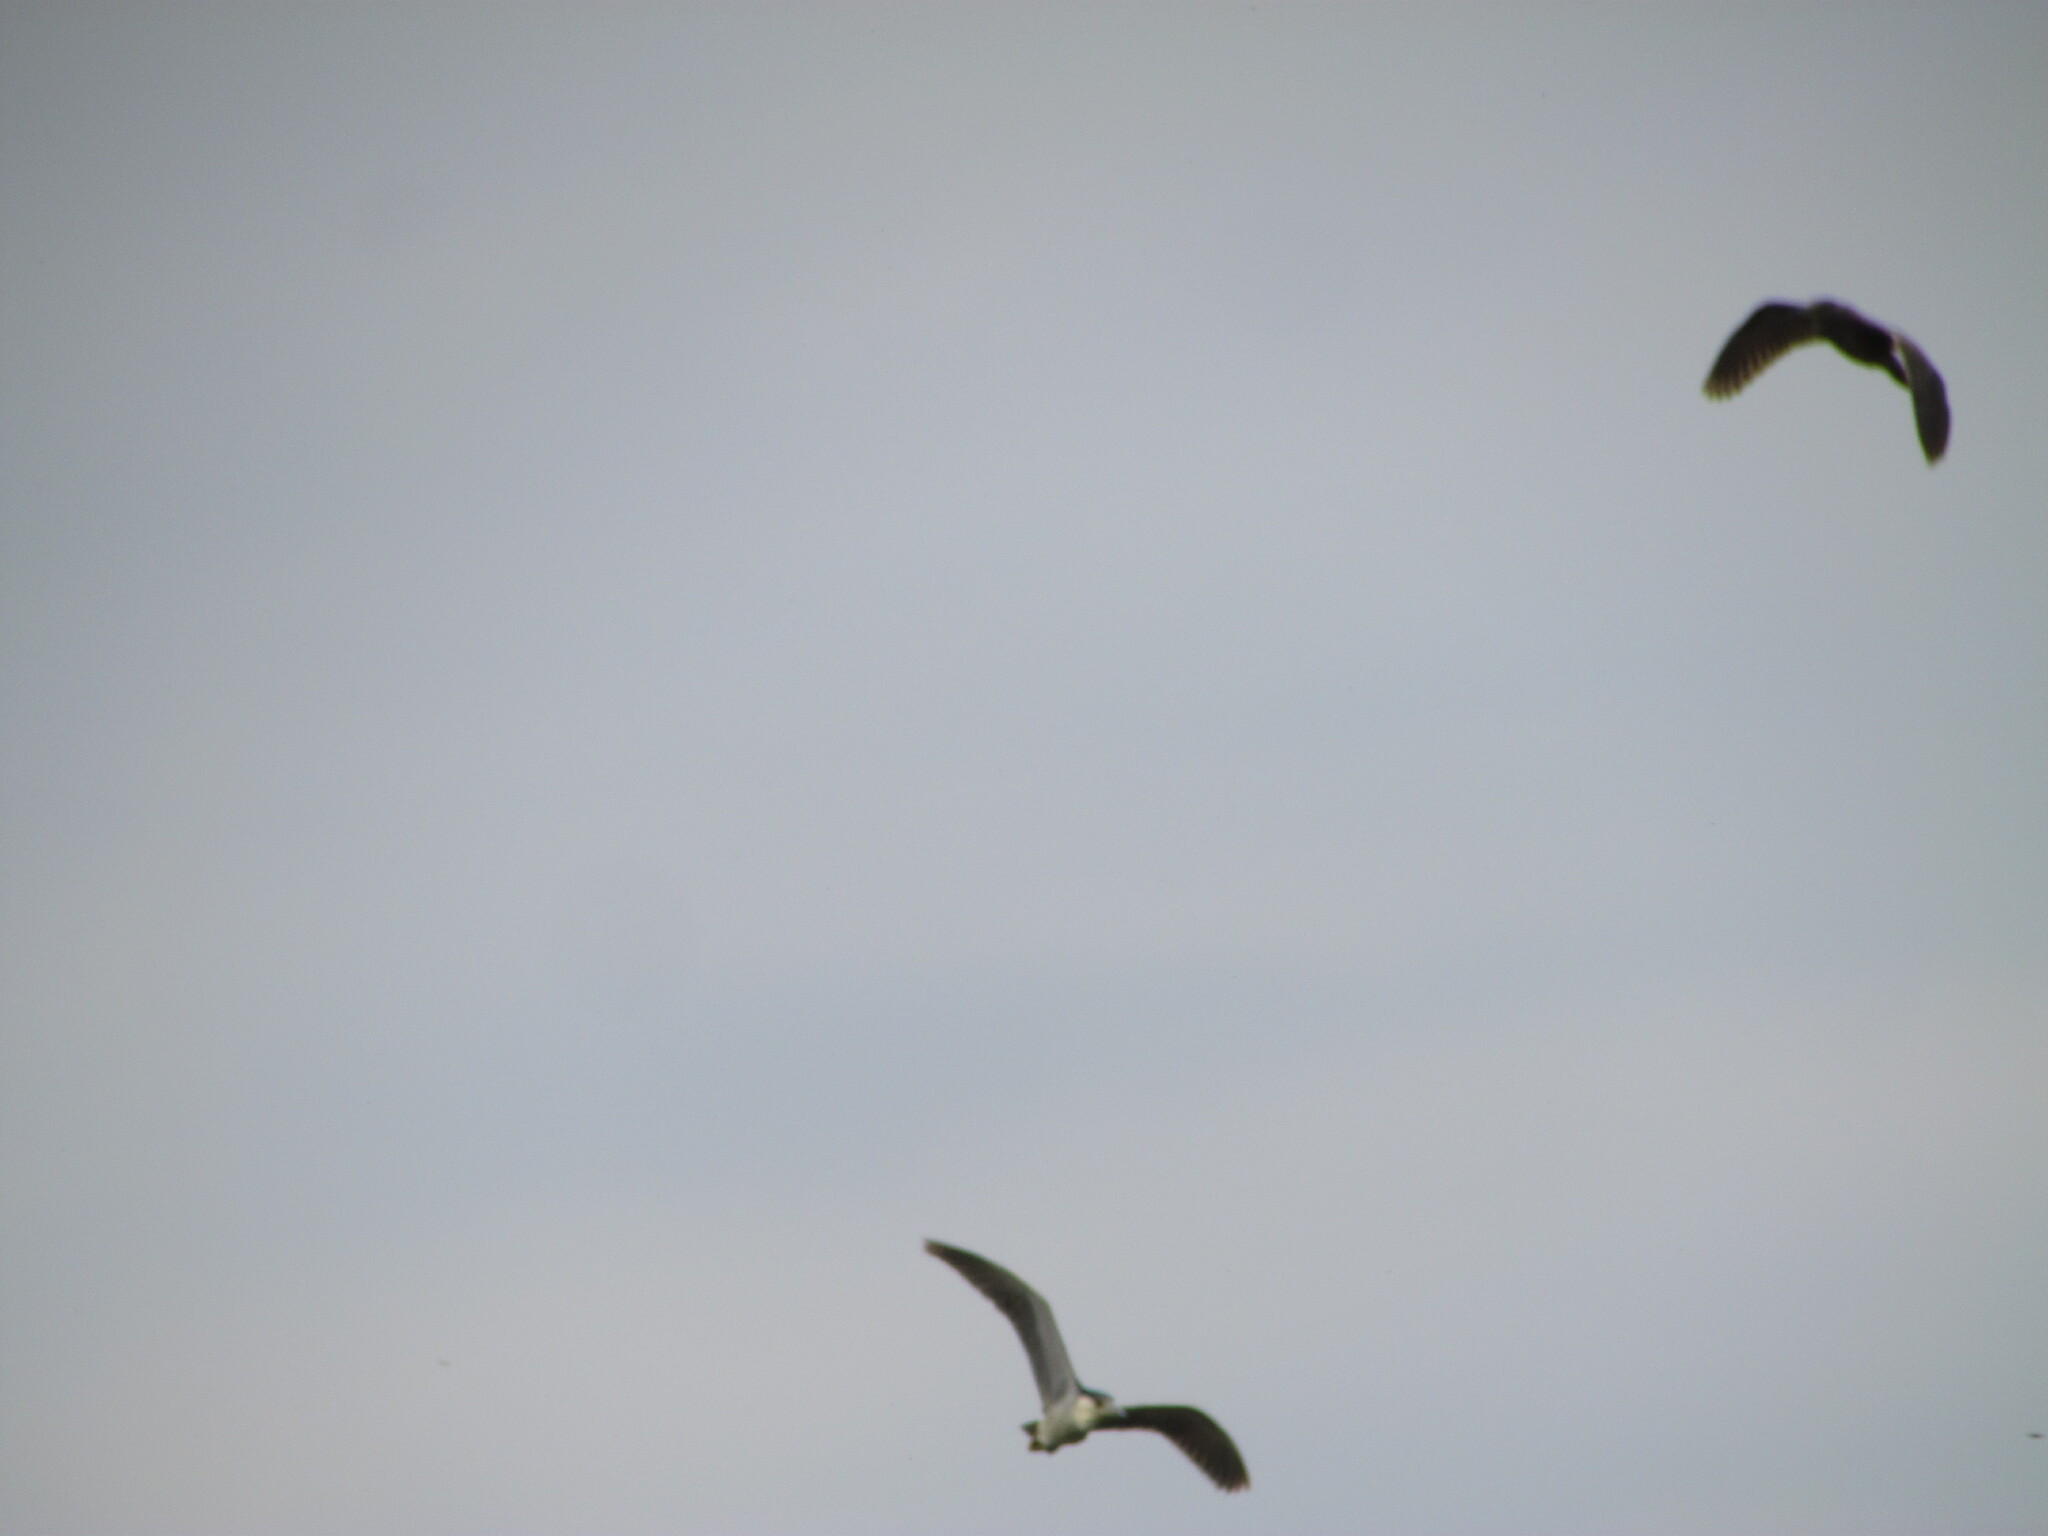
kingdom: Animalia
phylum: Chordata
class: Aves
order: Pelecaniformes
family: Ardeidae
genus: Nycticorax
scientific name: Nycticorax nycticorax
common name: Black-crowned night heron
